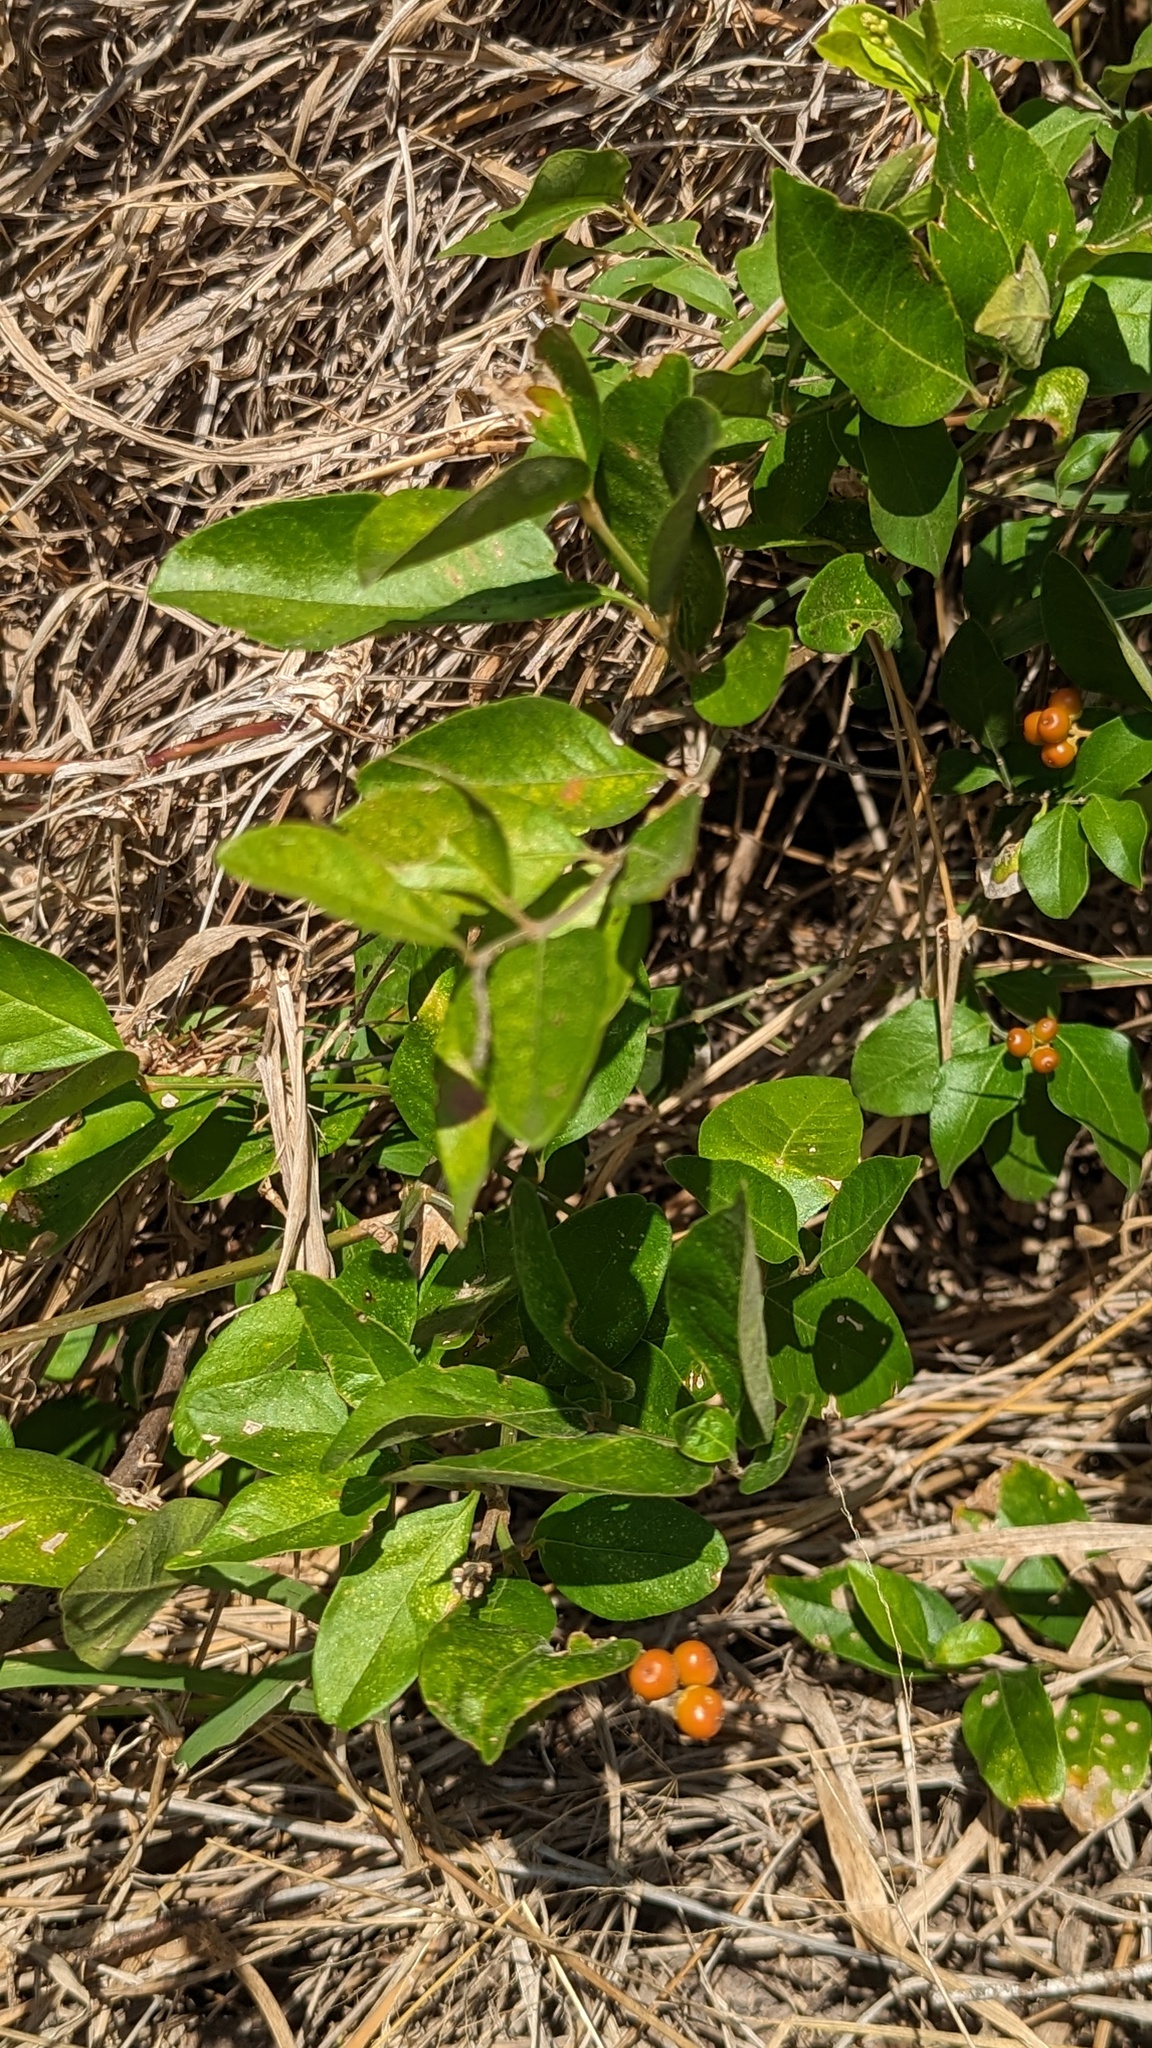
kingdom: Plantae
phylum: Tracheophyta
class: Magnoliopsida
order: Lamiales
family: Verbenaceae
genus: Citharexylum
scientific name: Citharexylum berlandieri
